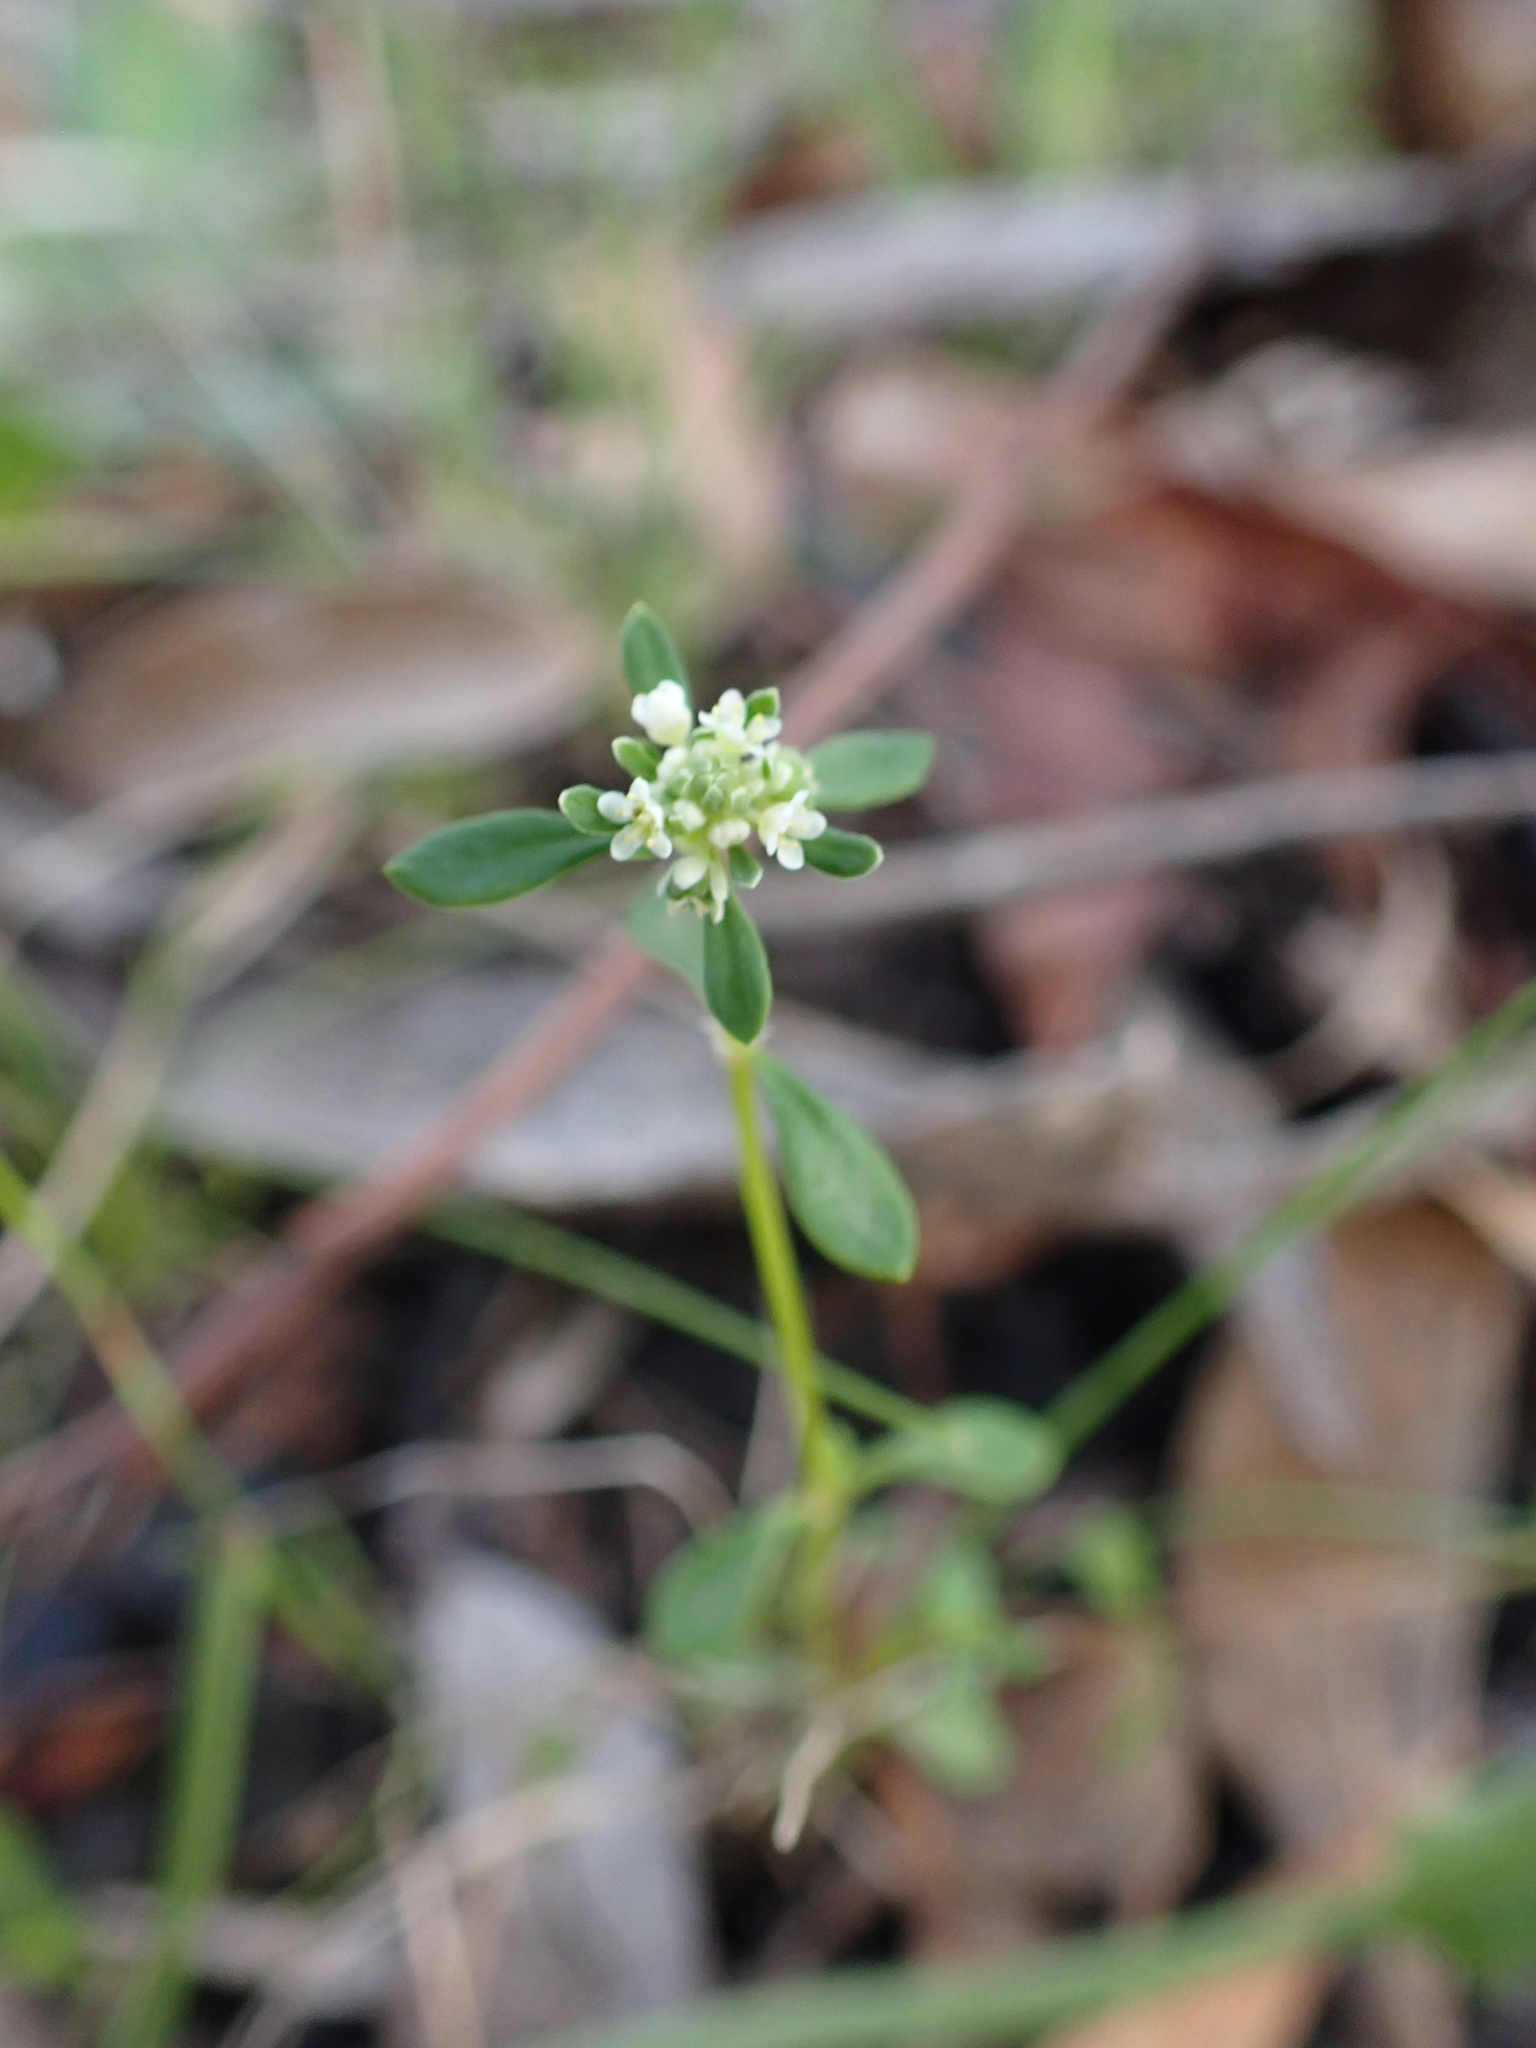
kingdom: Plantae
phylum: Tracheophyta
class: Magnoliopsida
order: Malpighiales
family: Phyllanthaceae
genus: Poranthera
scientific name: Poranthera microphylla
